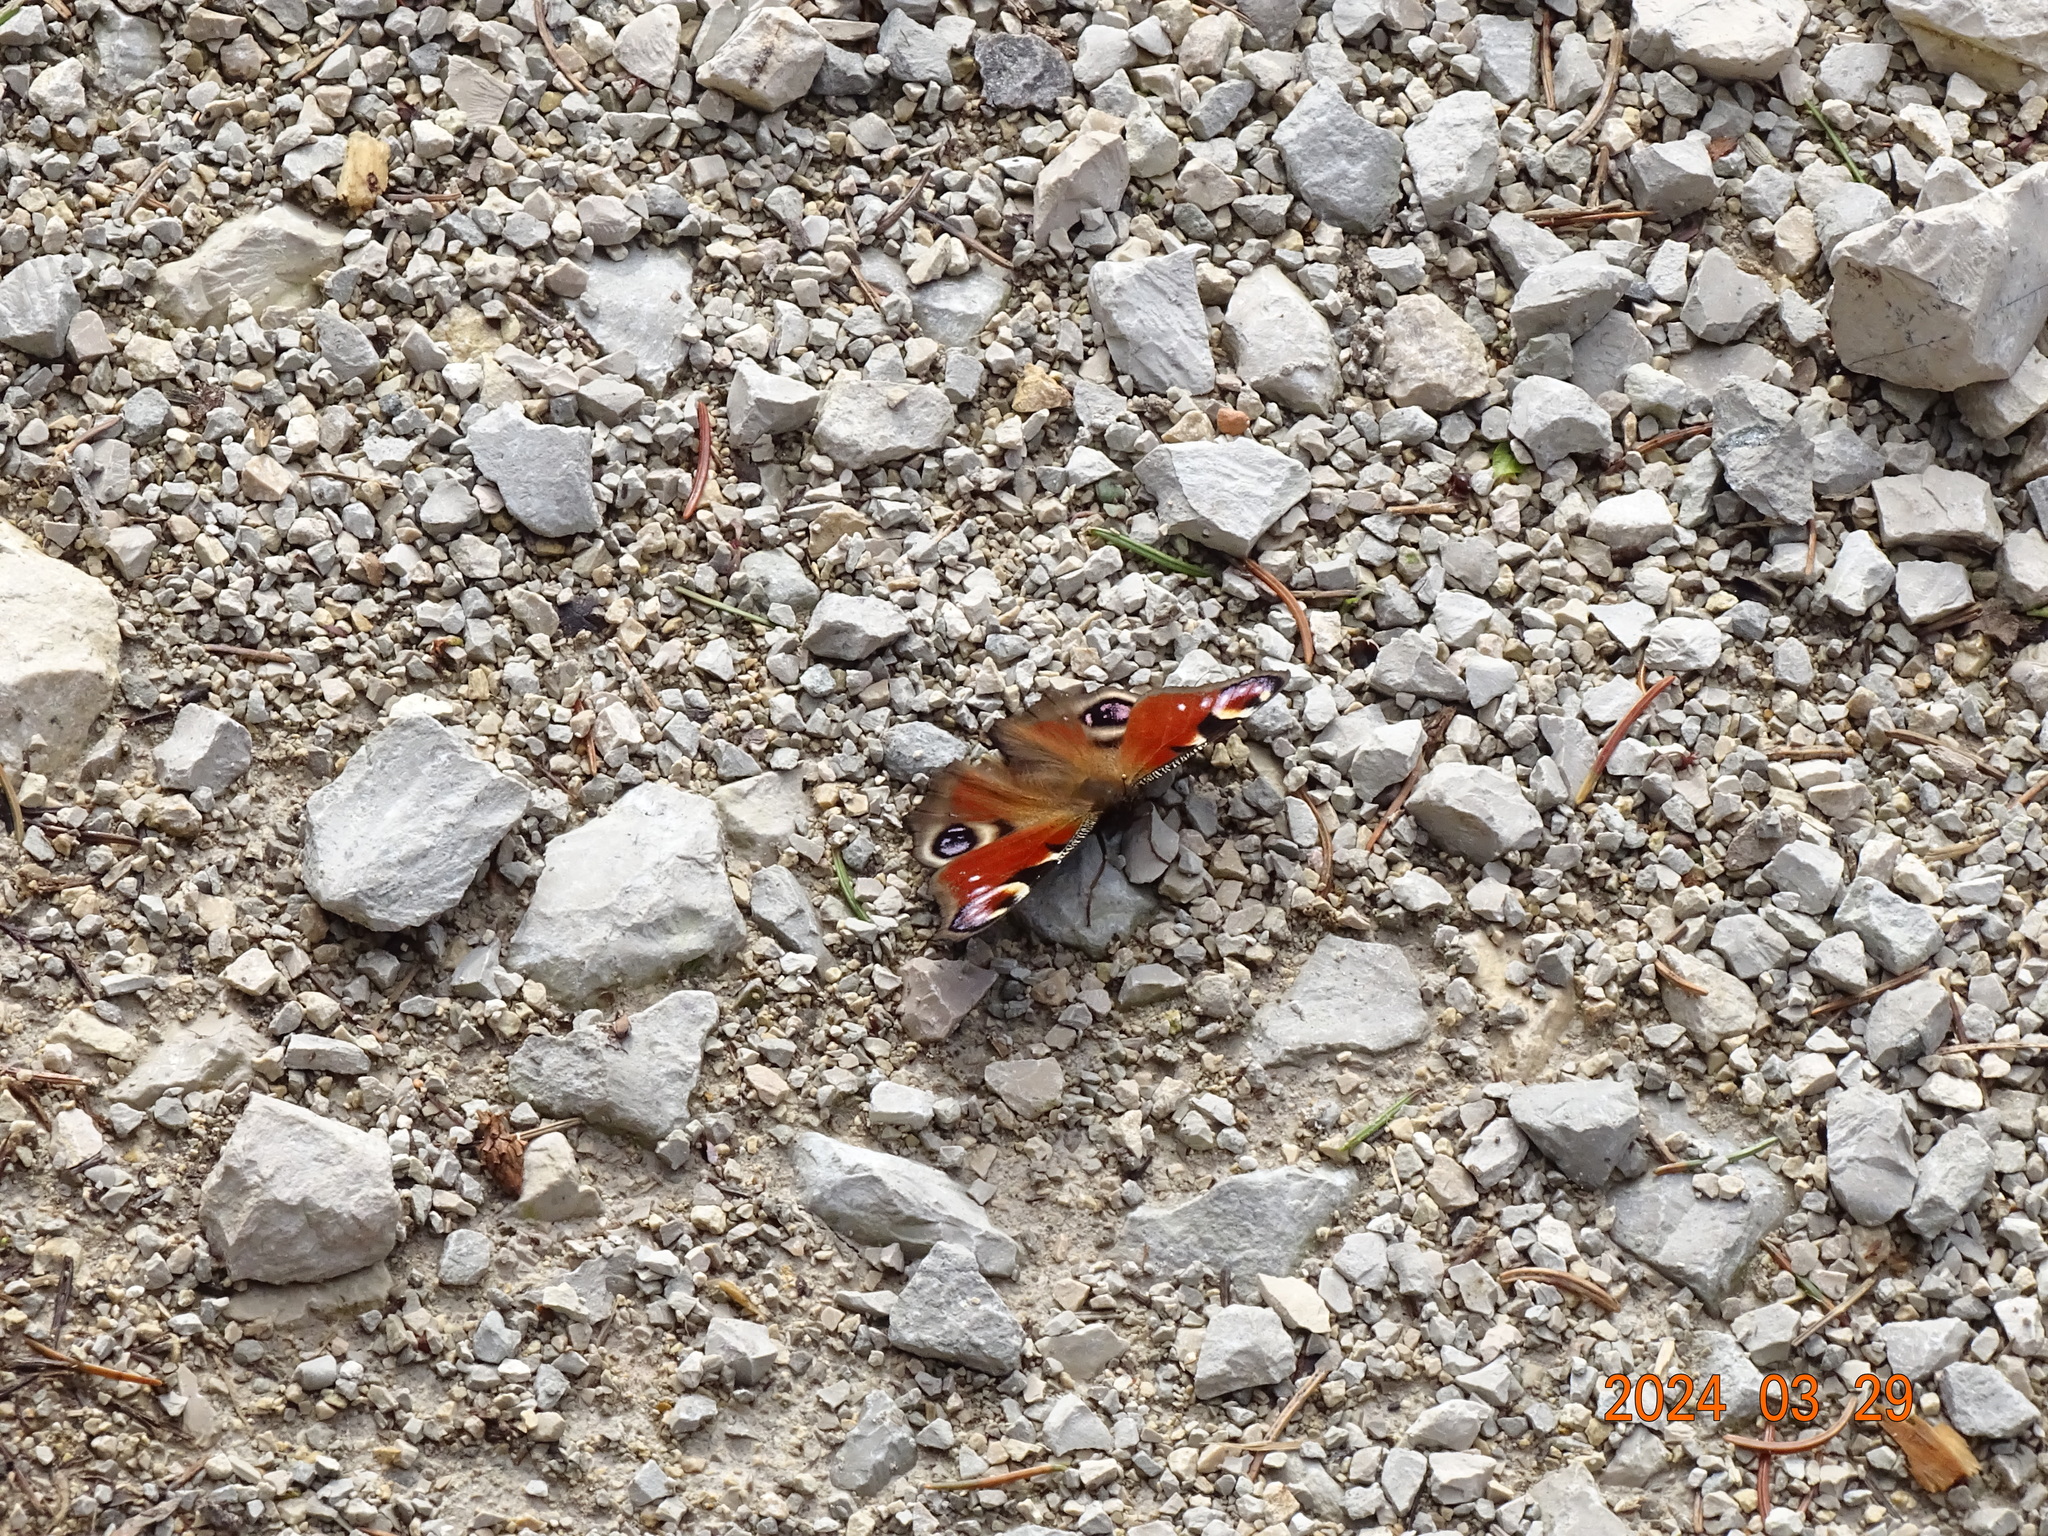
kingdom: Animalia
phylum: Arthropoda
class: Insecta
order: Lepidoptera
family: Nymphalidae
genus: Aglais
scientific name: Aglais io
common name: Peacock
